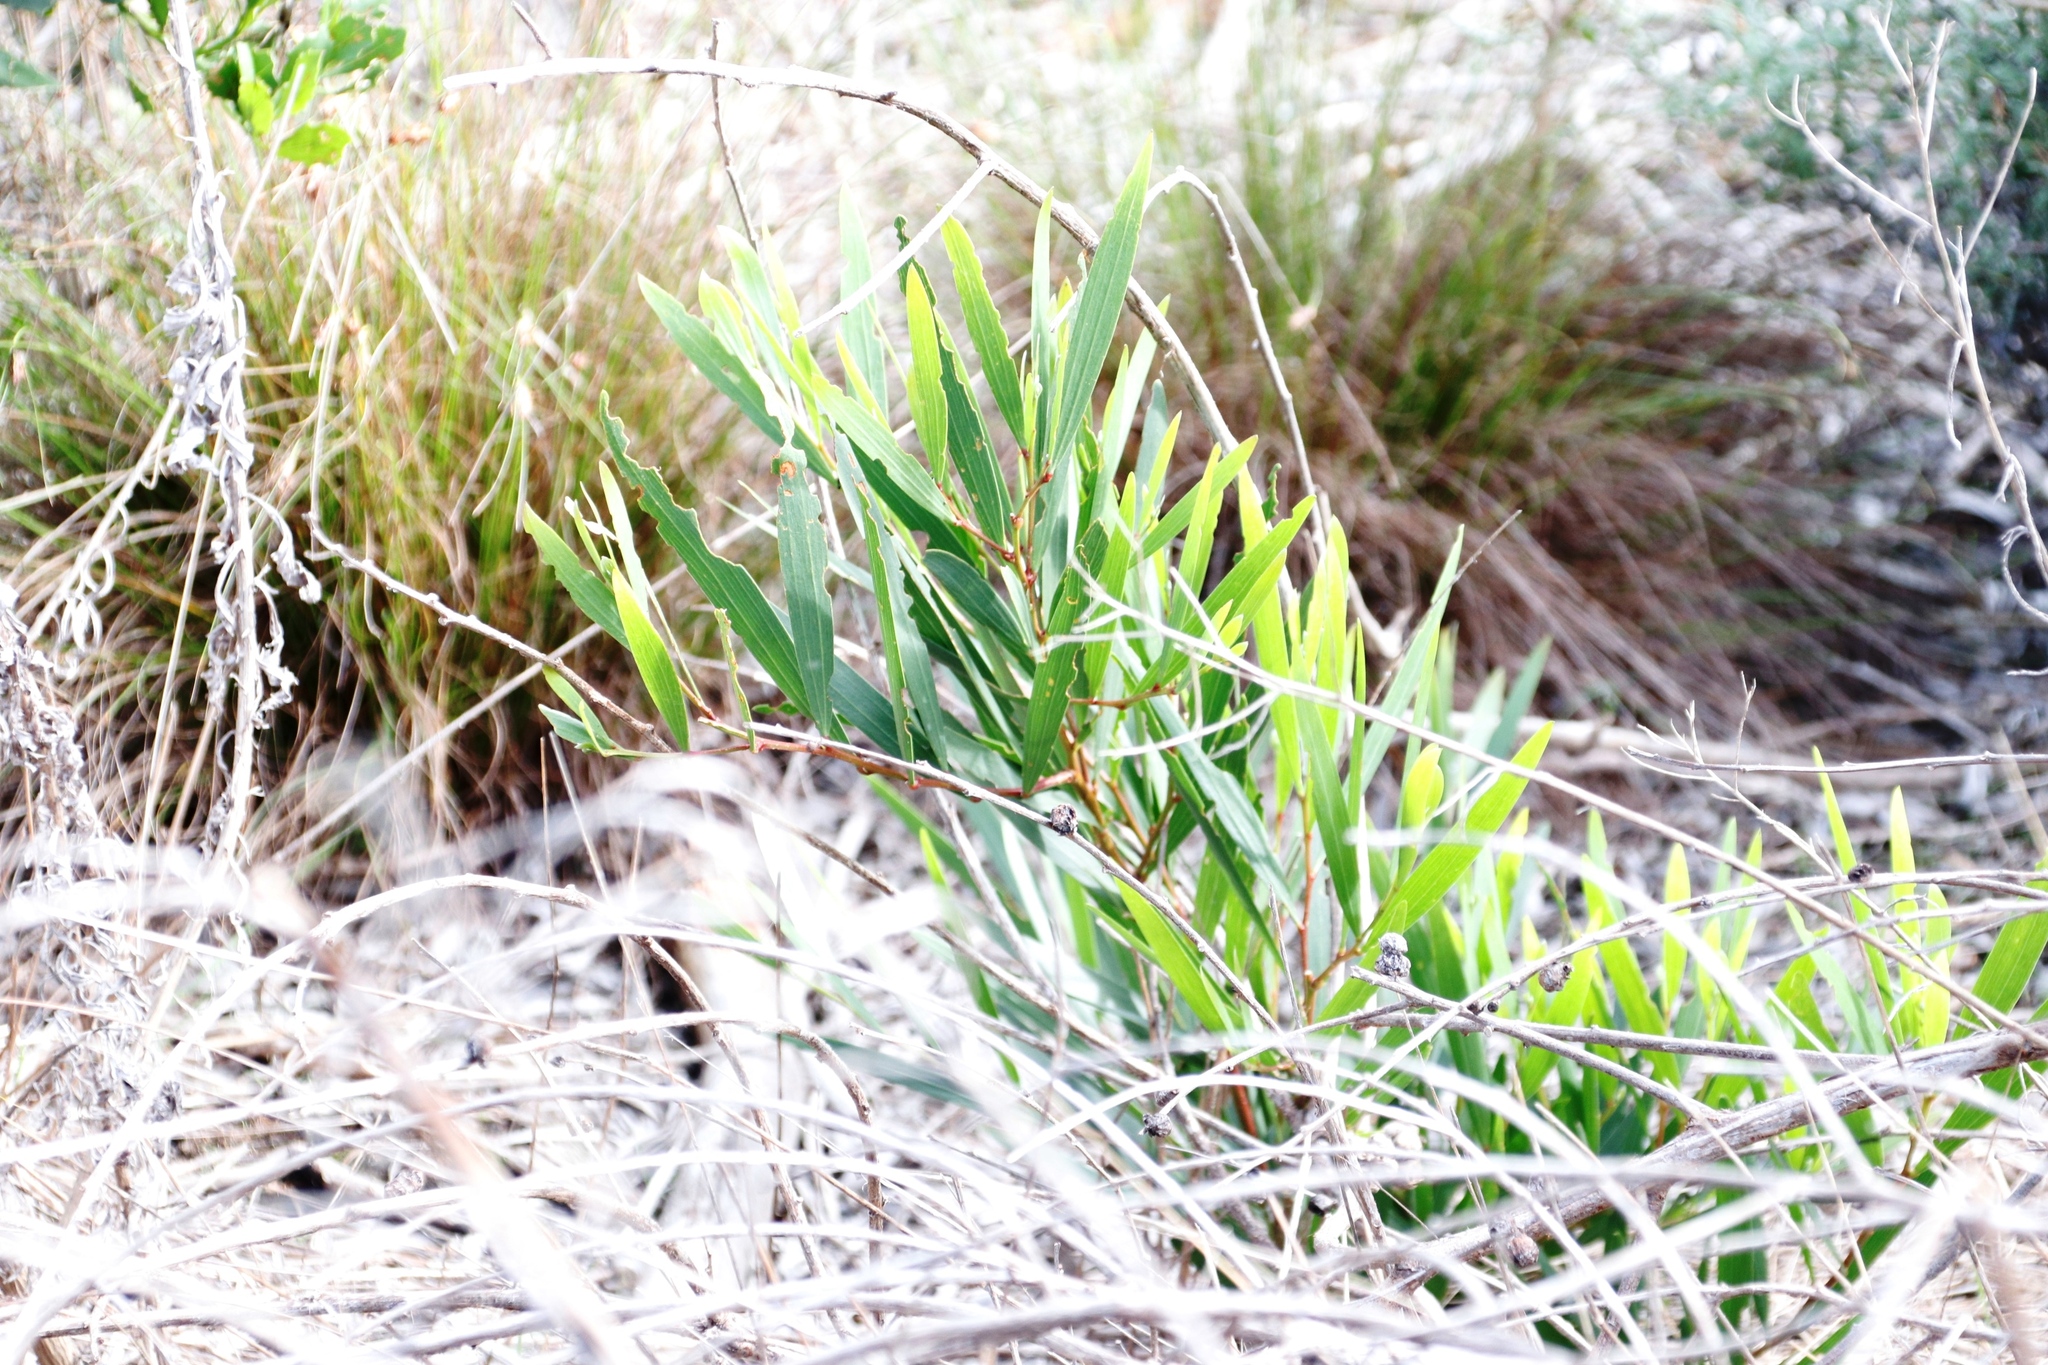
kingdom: Plantae
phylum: Tracheophyta
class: Magnoliopsida
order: Fabales
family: Fabaceae
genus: Acacia
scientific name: Acacia longifolia
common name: Sydney golden wattle
